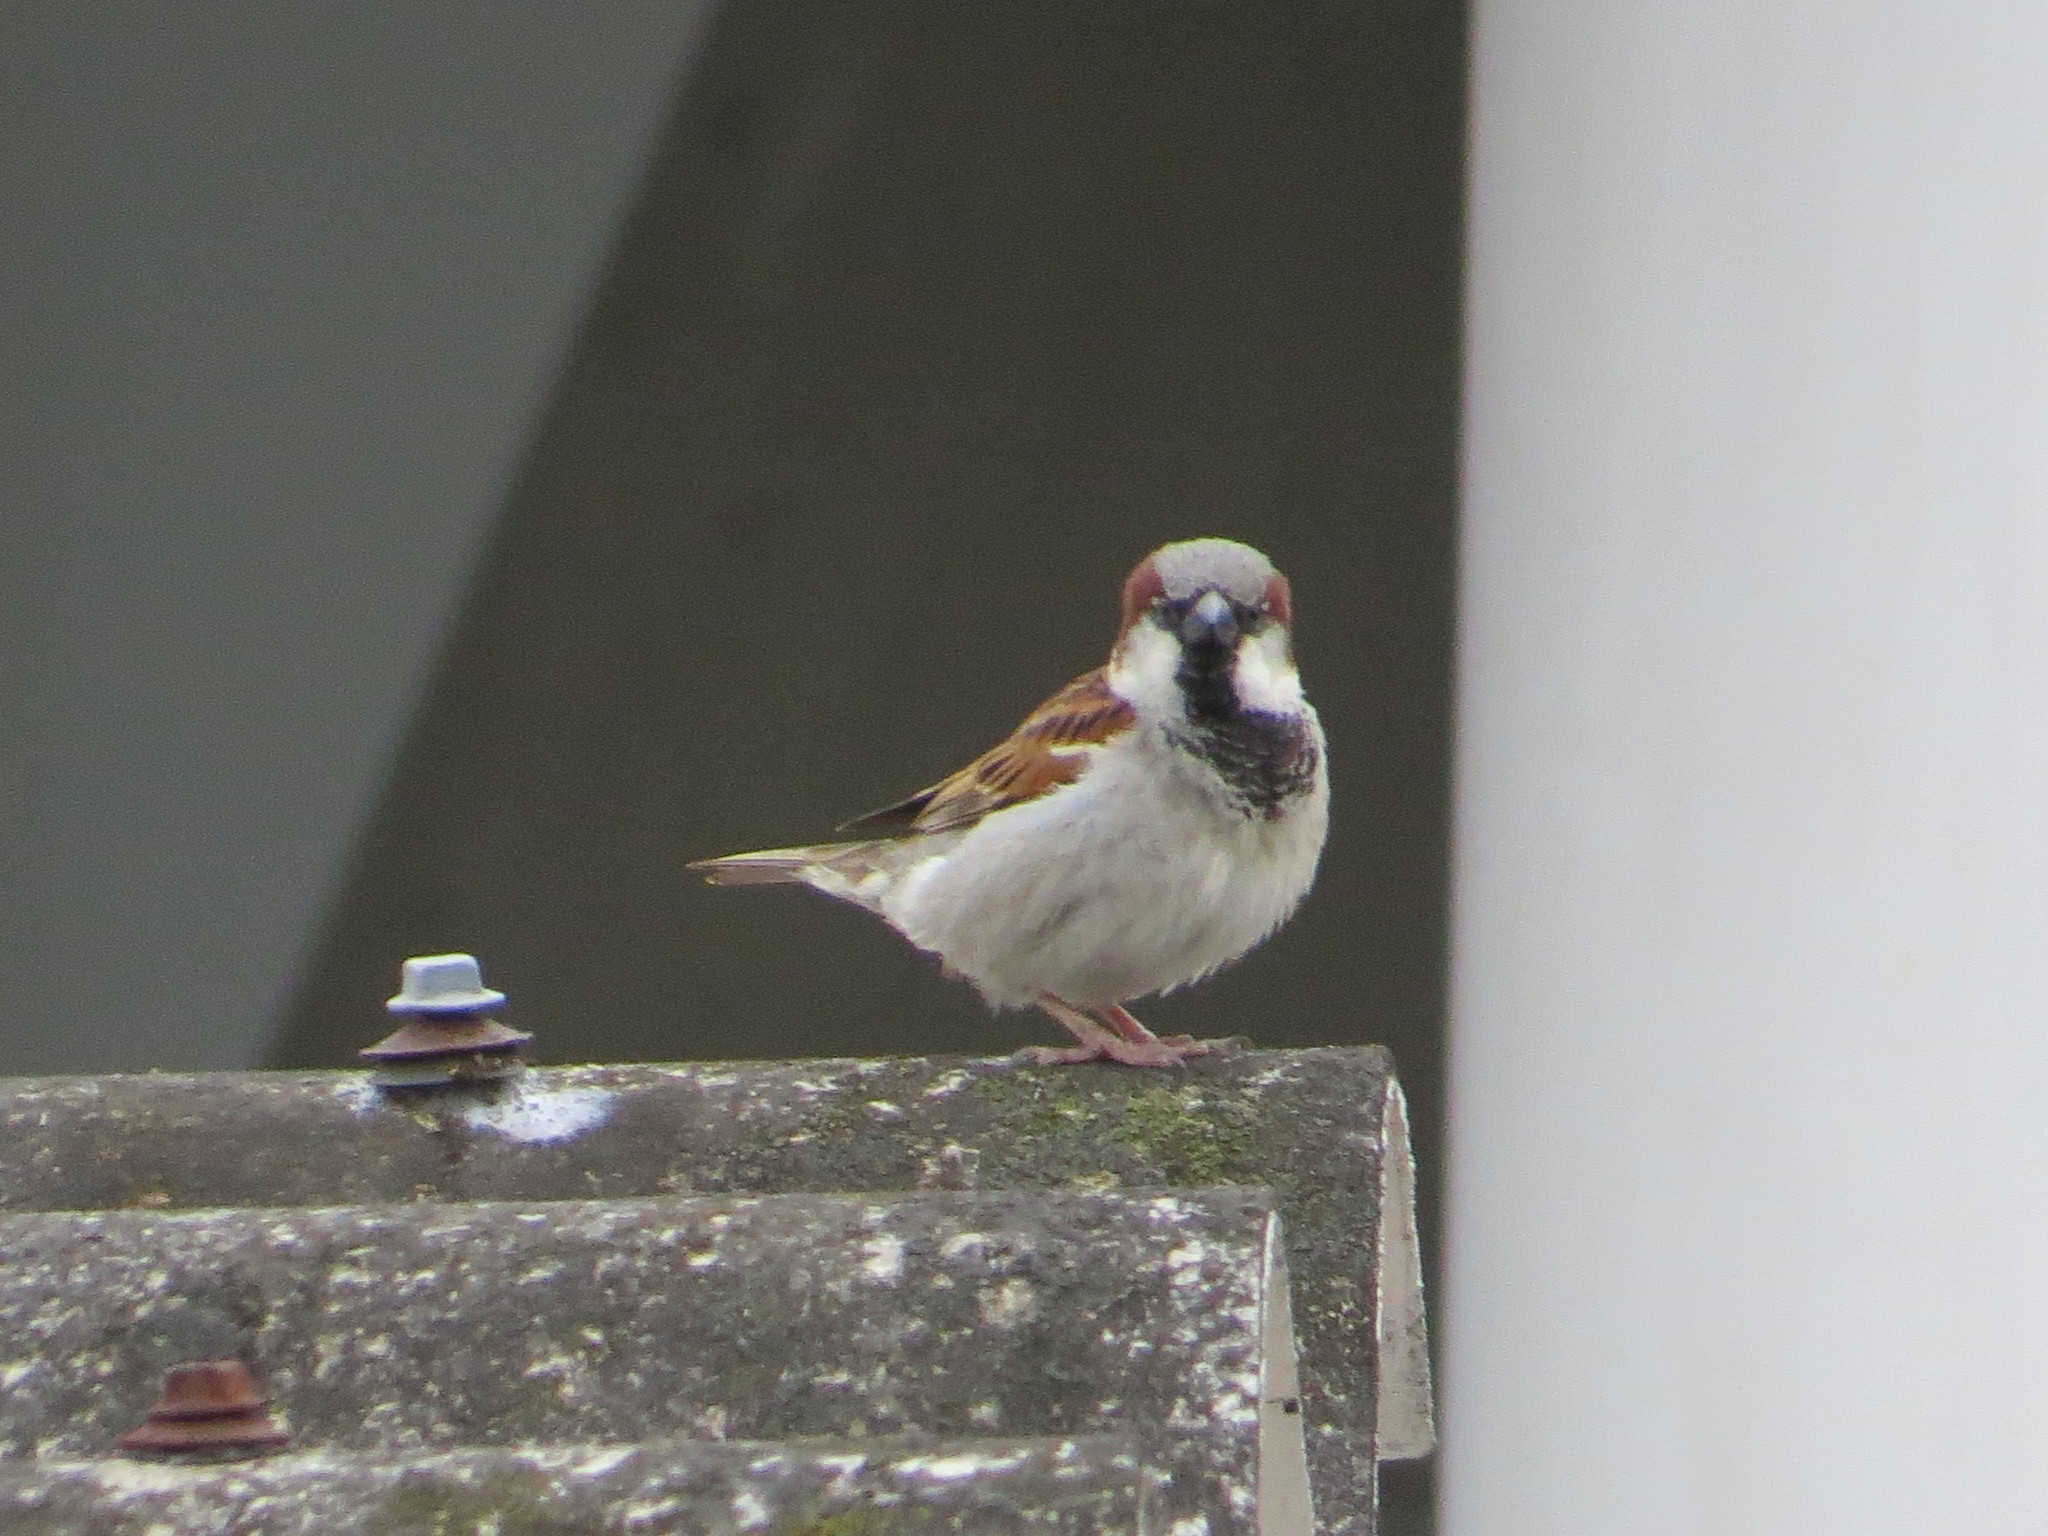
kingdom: Animalia
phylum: Chordata
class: Aves
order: Passeriformes
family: Passeridae
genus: Passer
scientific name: Passer domesticus
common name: House sparrow
